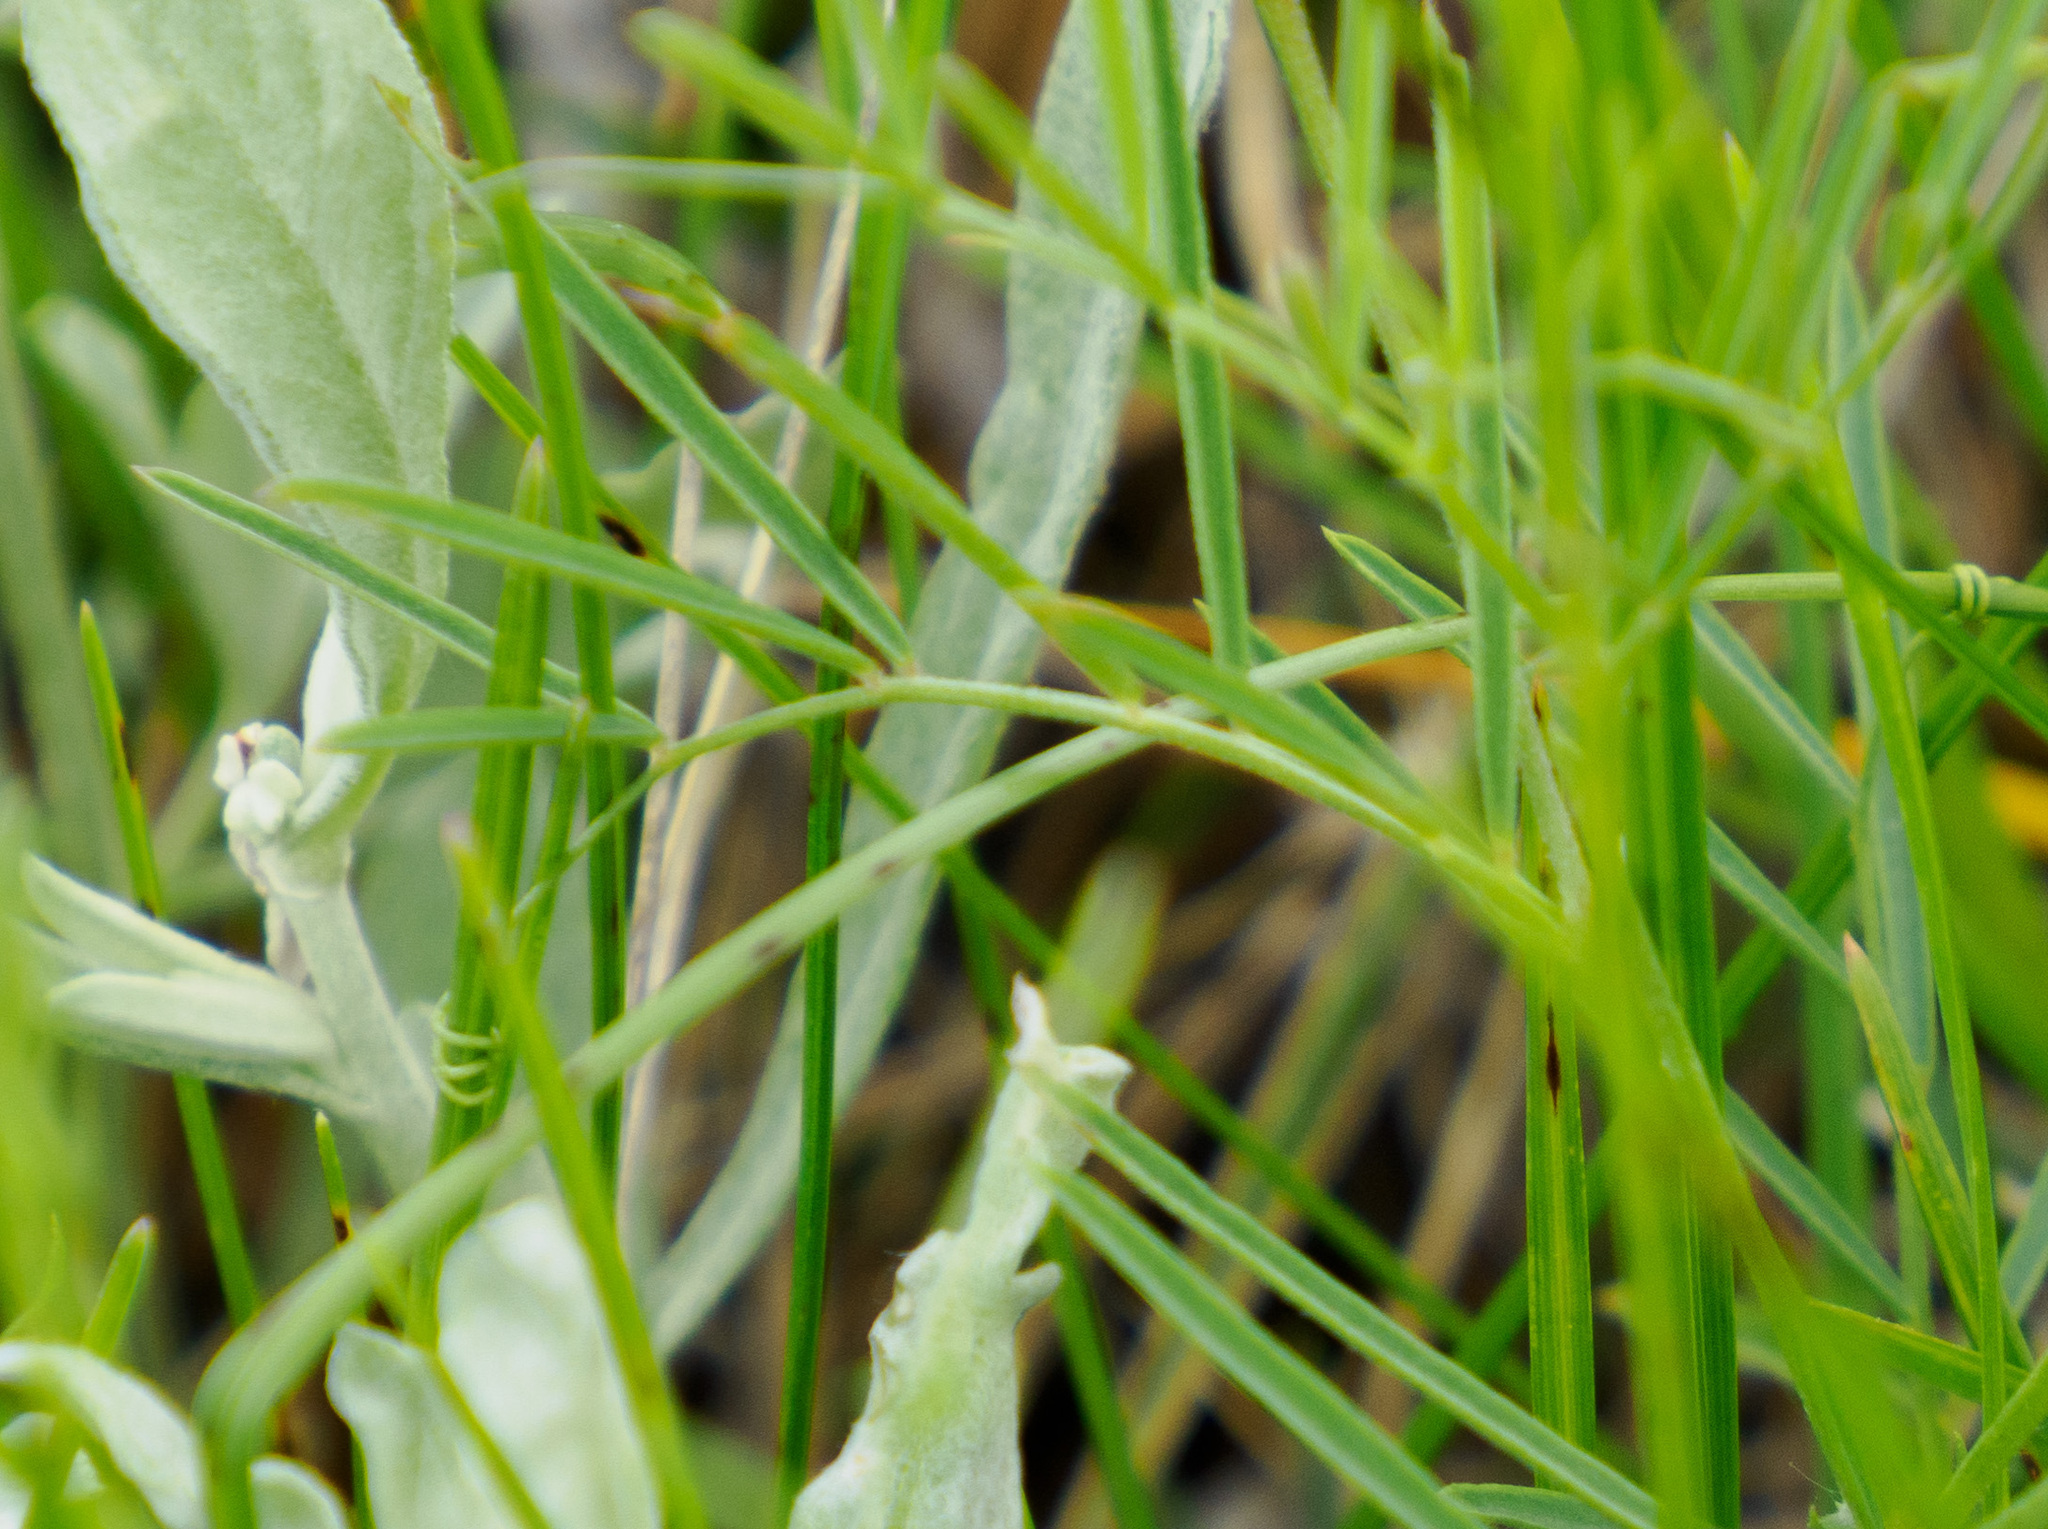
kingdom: Plantae
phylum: Tracheophyta
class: Magnoliopsida
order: Fabales
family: Fabaceae
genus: Vicia
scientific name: Vicia americana
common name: American vetch
